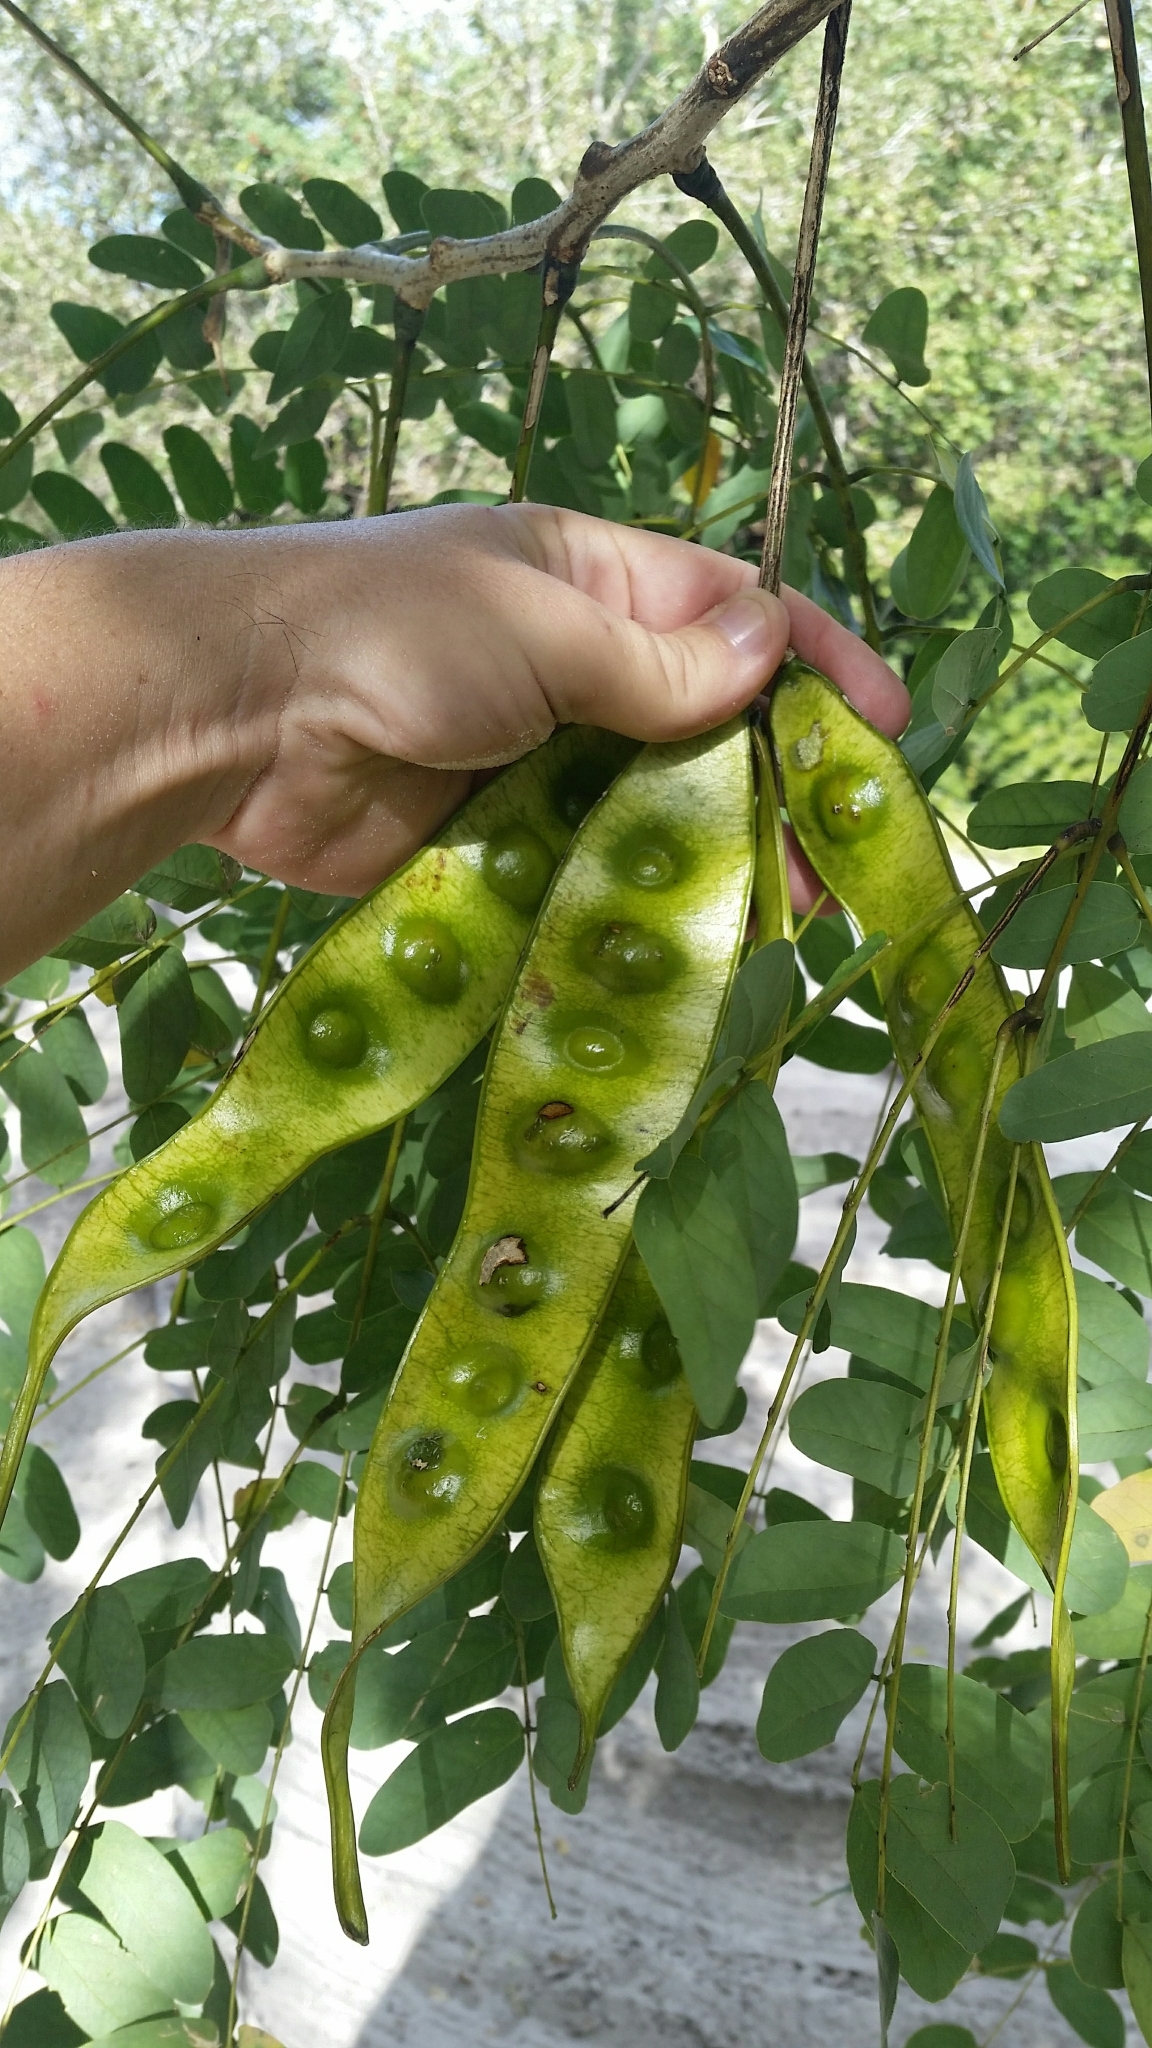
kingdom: Plantae
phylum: Tracheophyta
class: Magnoliopsida
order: Fabales
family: Fabaceae
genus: Albizia
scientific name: Albizia lebbeck
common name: Woman's tongue
